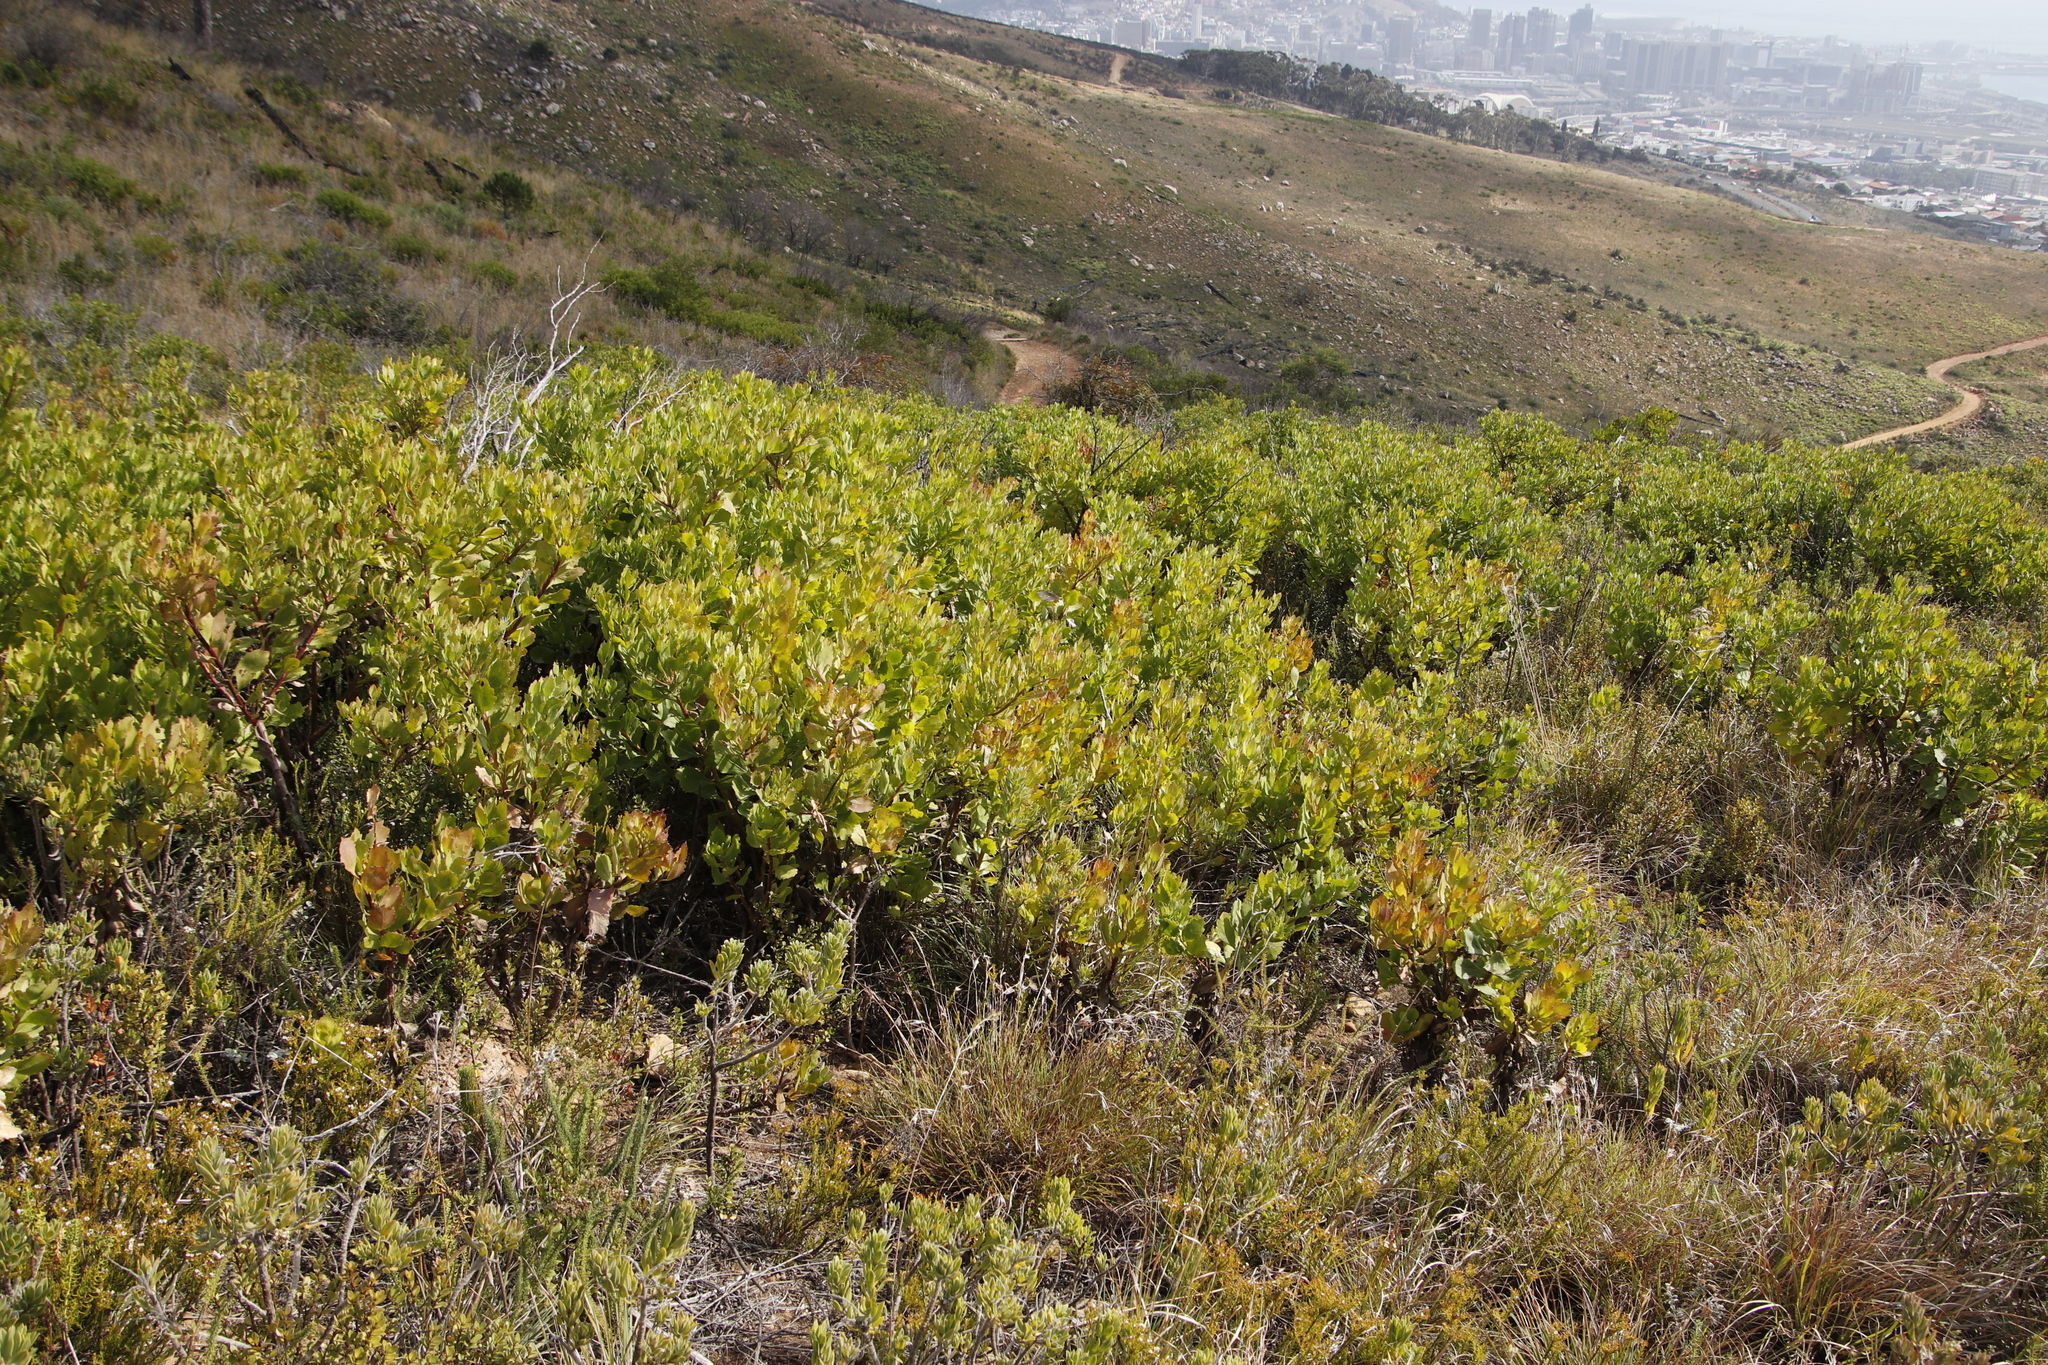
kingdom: Plantae
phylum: Tracheophyta
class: Magnoliopsida
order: Asterales
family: Asteraceae
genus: Osteospermum
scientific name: Osteospermum moniliferum
